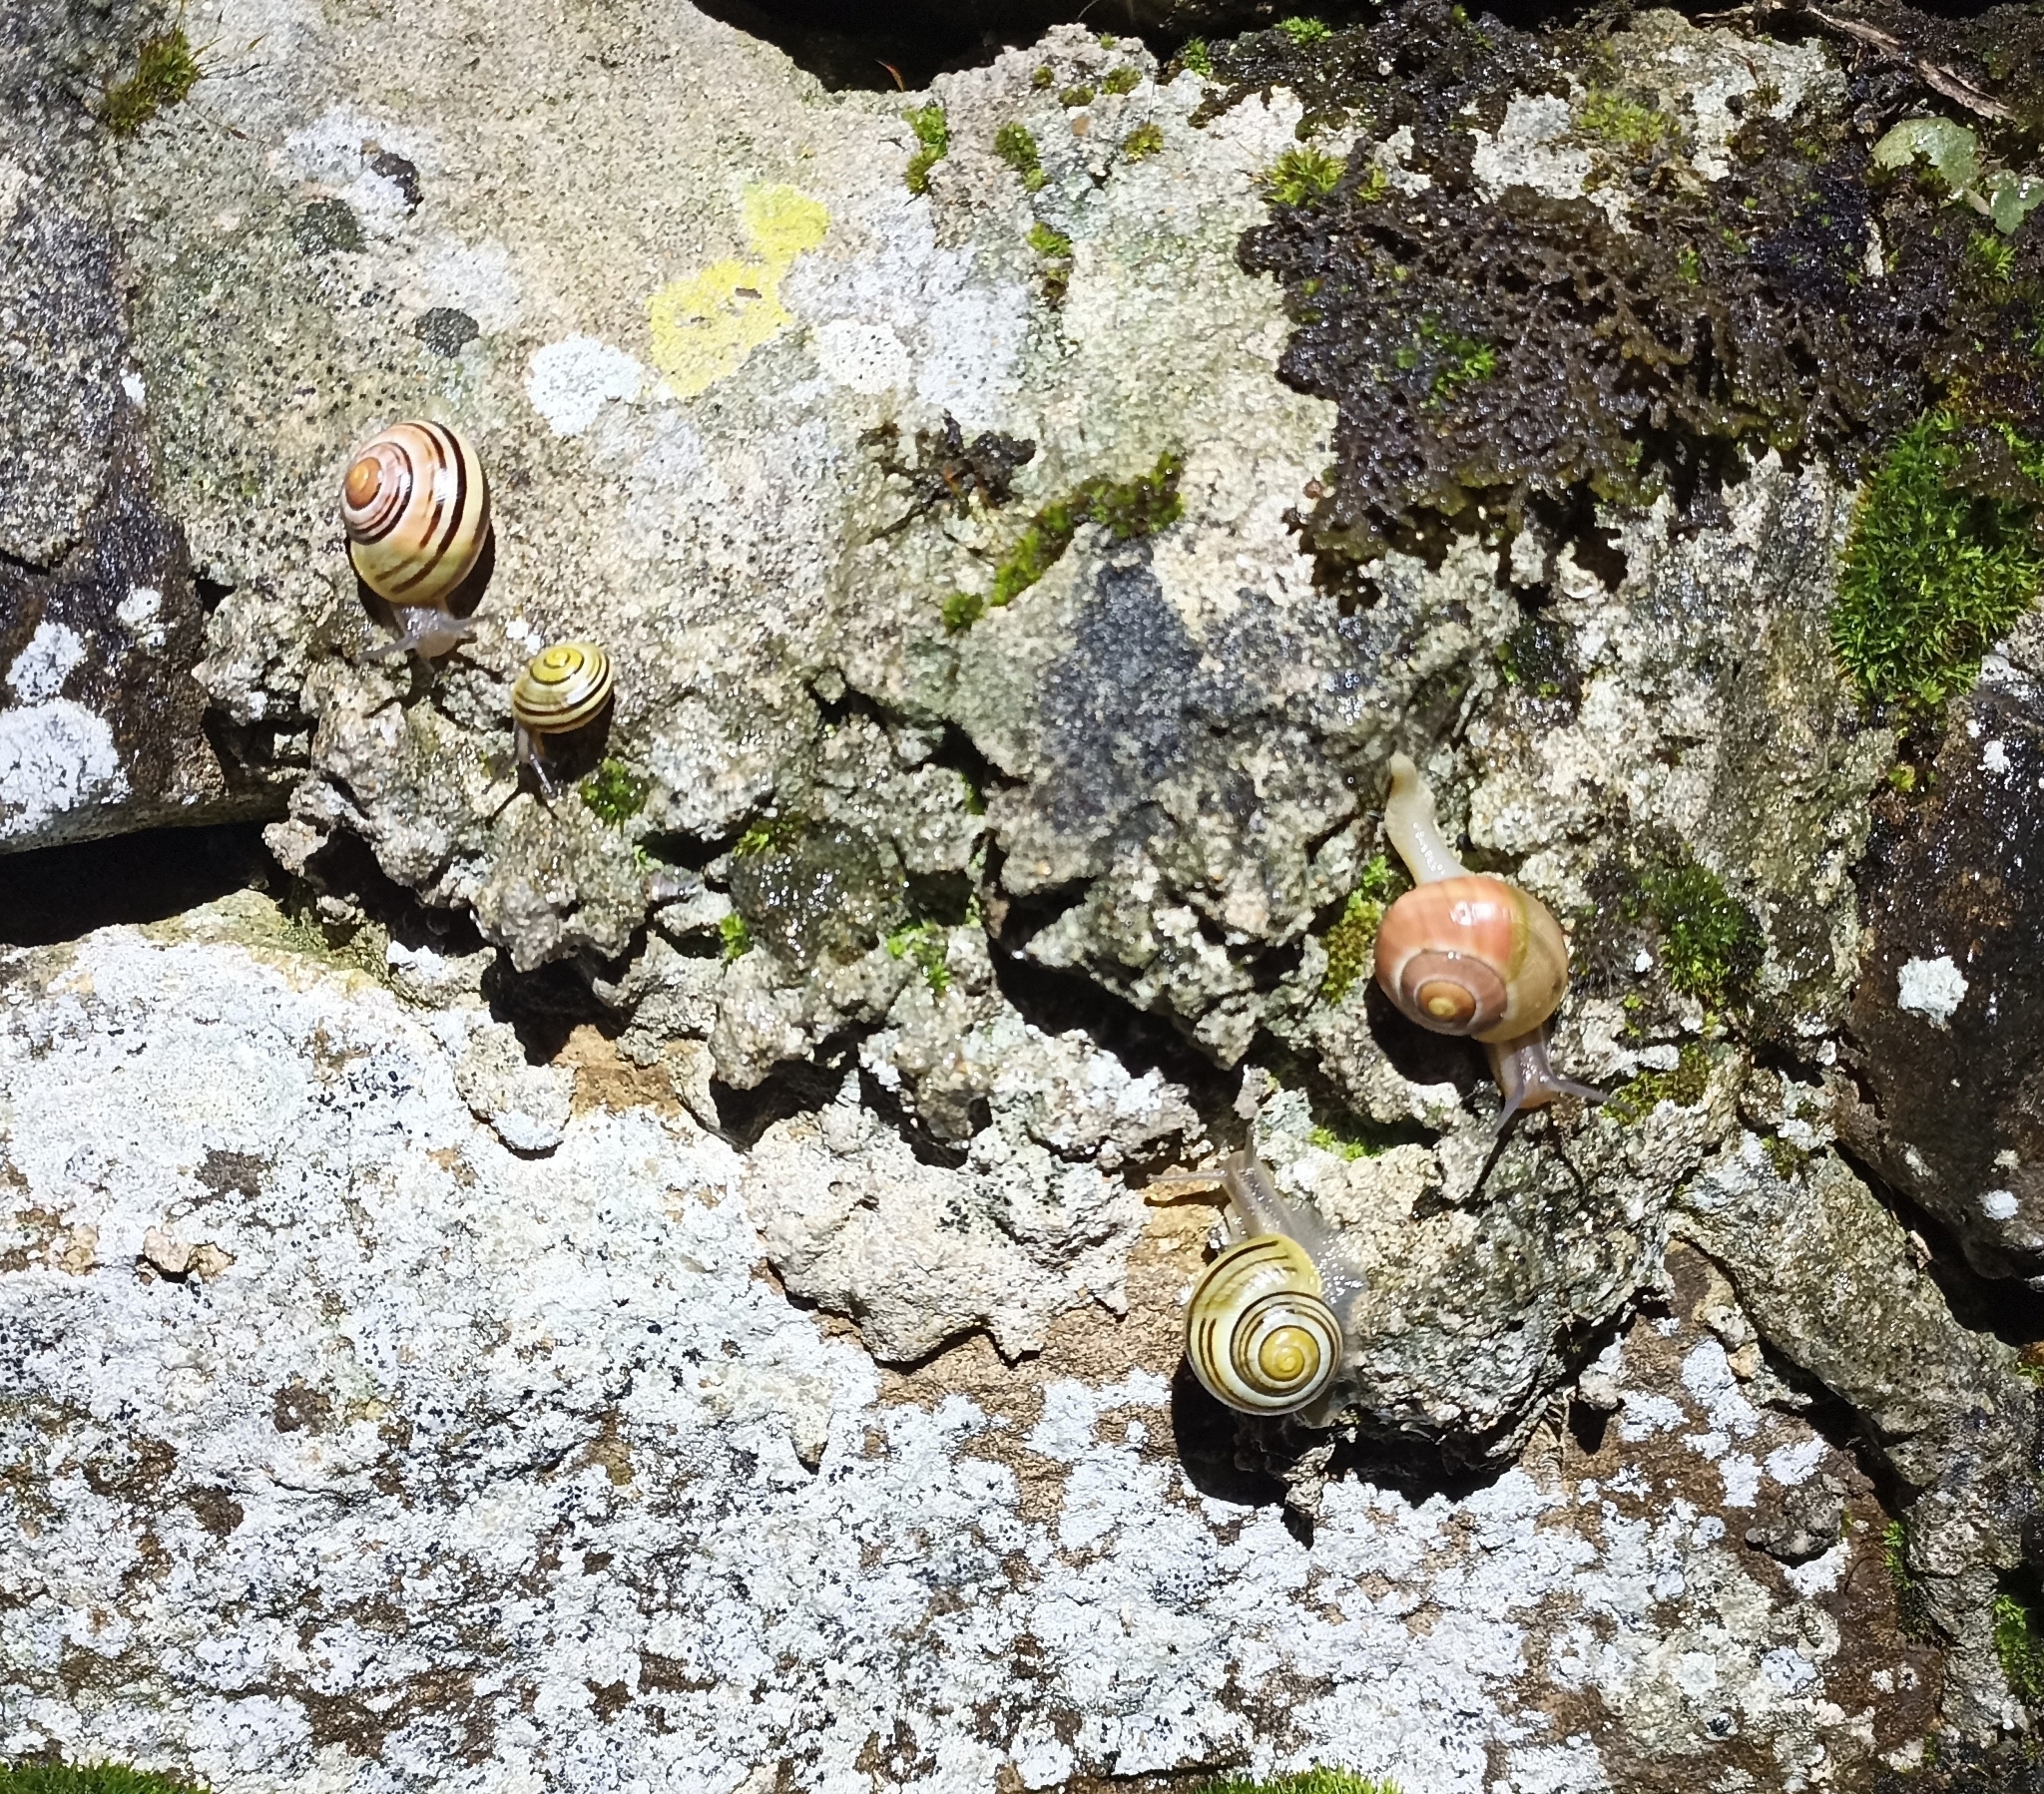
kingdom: Animalia
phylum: Mollusca
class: Gastropoda
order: Stylommatophora
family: Helicidae
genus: Cepaea
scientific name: Cepaea nemoralis
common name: Grovesnail
